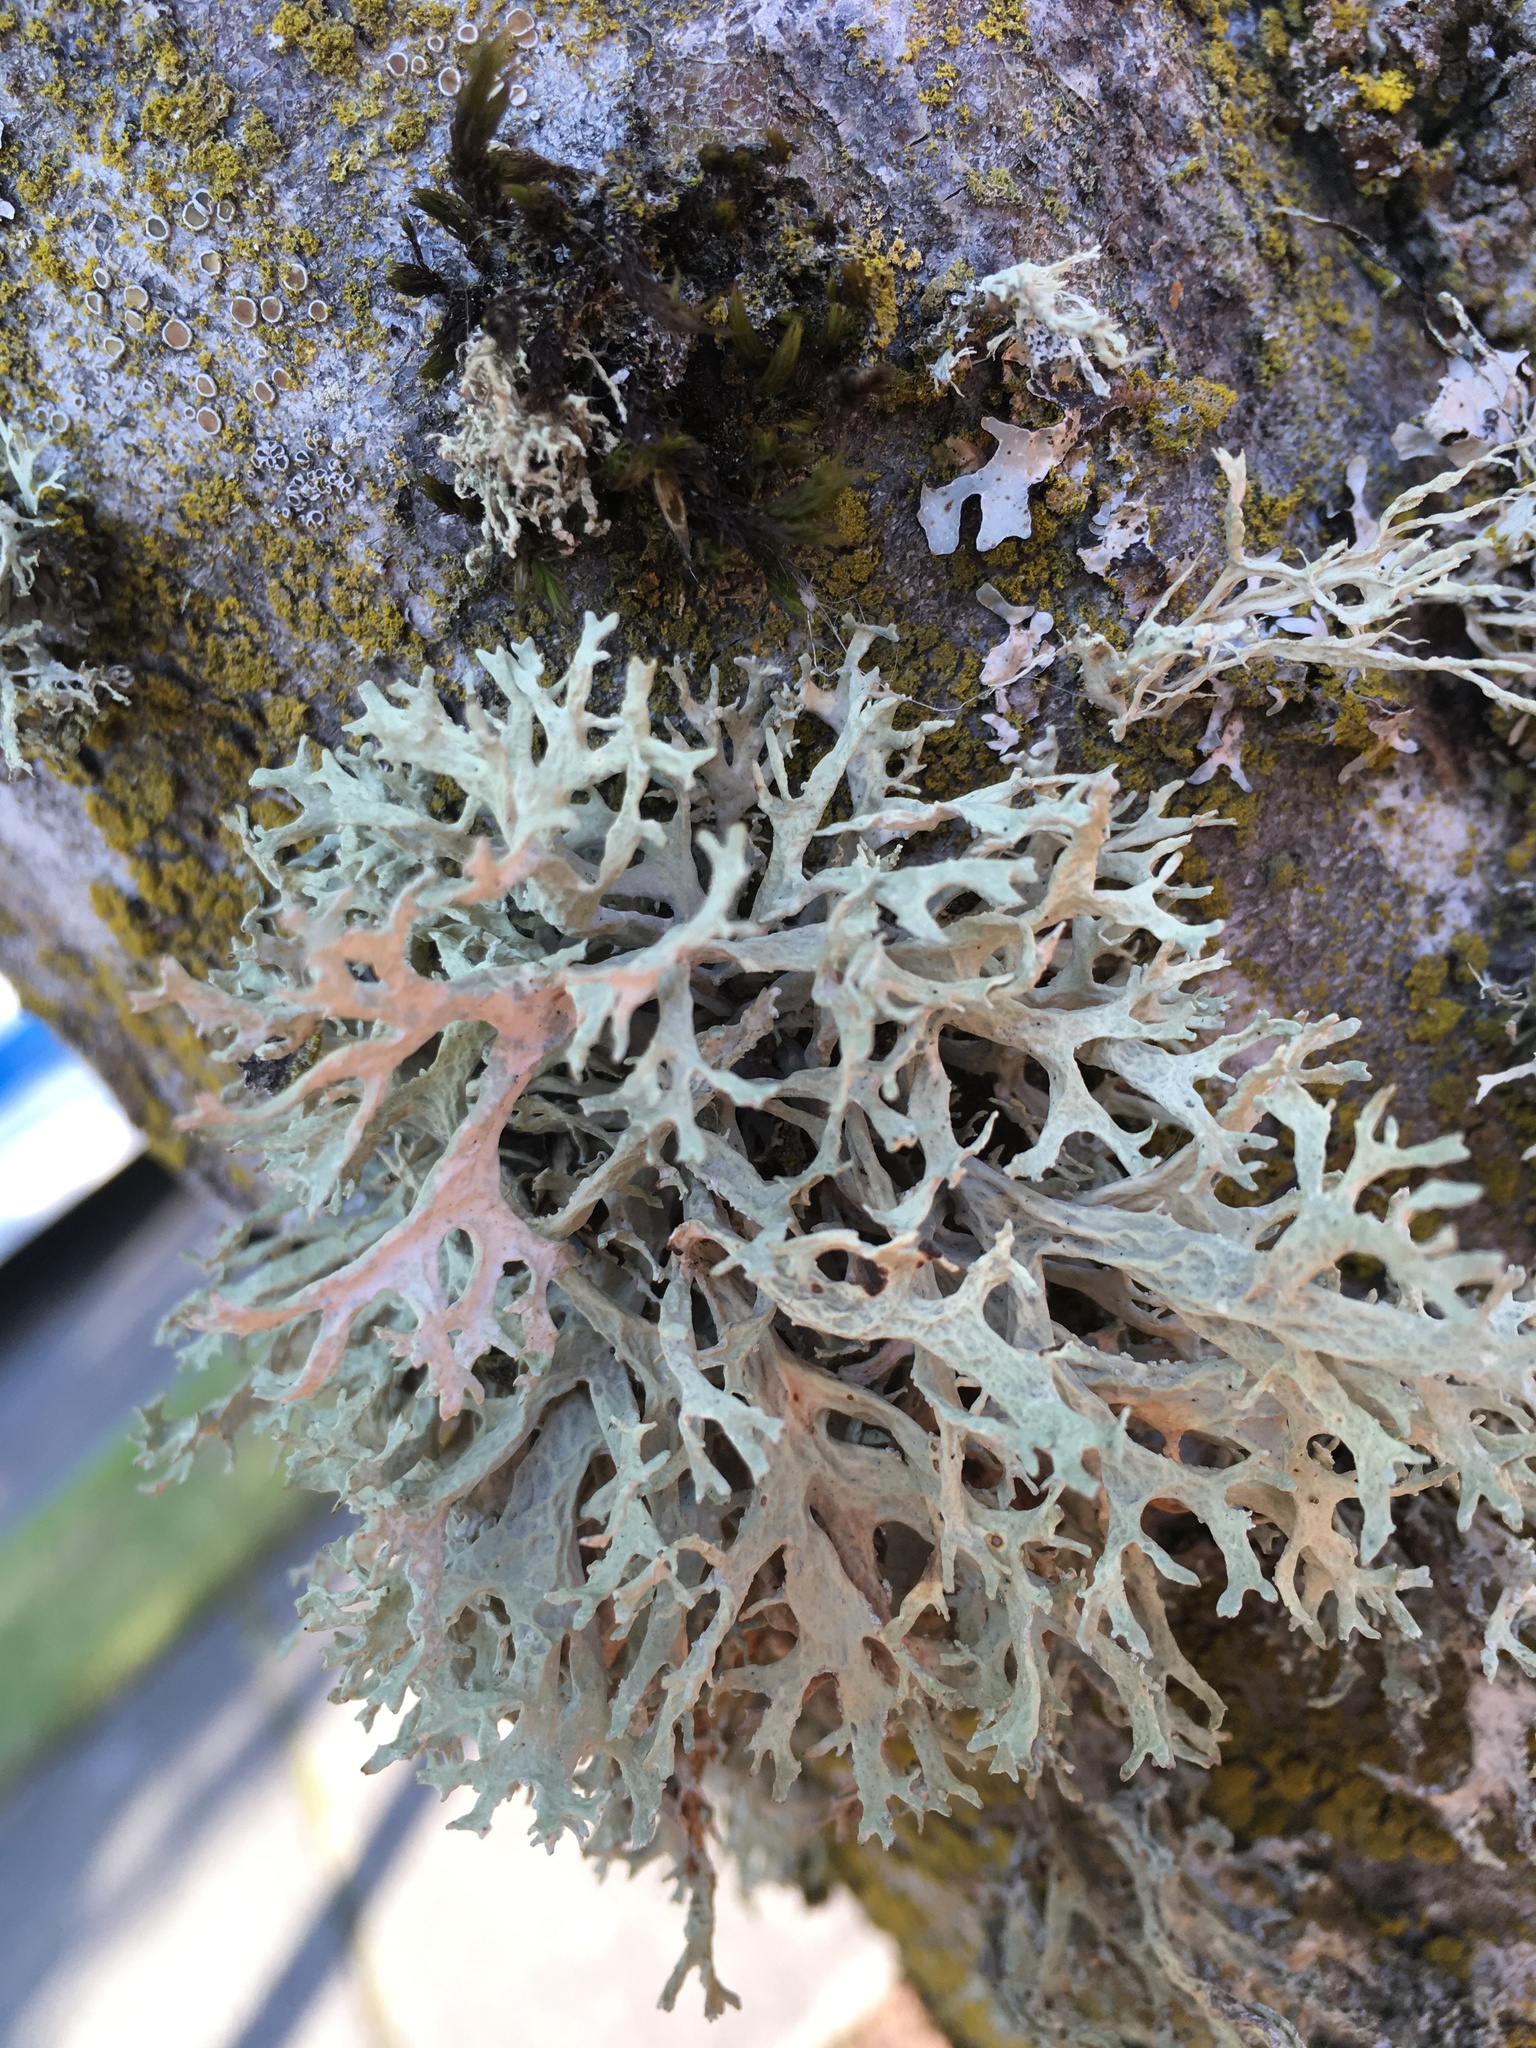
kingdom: Fungi
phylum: Ascomycota
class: Lecanoromycetes
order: Lecanorales
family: Parmeliaceae
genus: Evernia
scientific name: Evernia prunastri
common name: Oak moss
